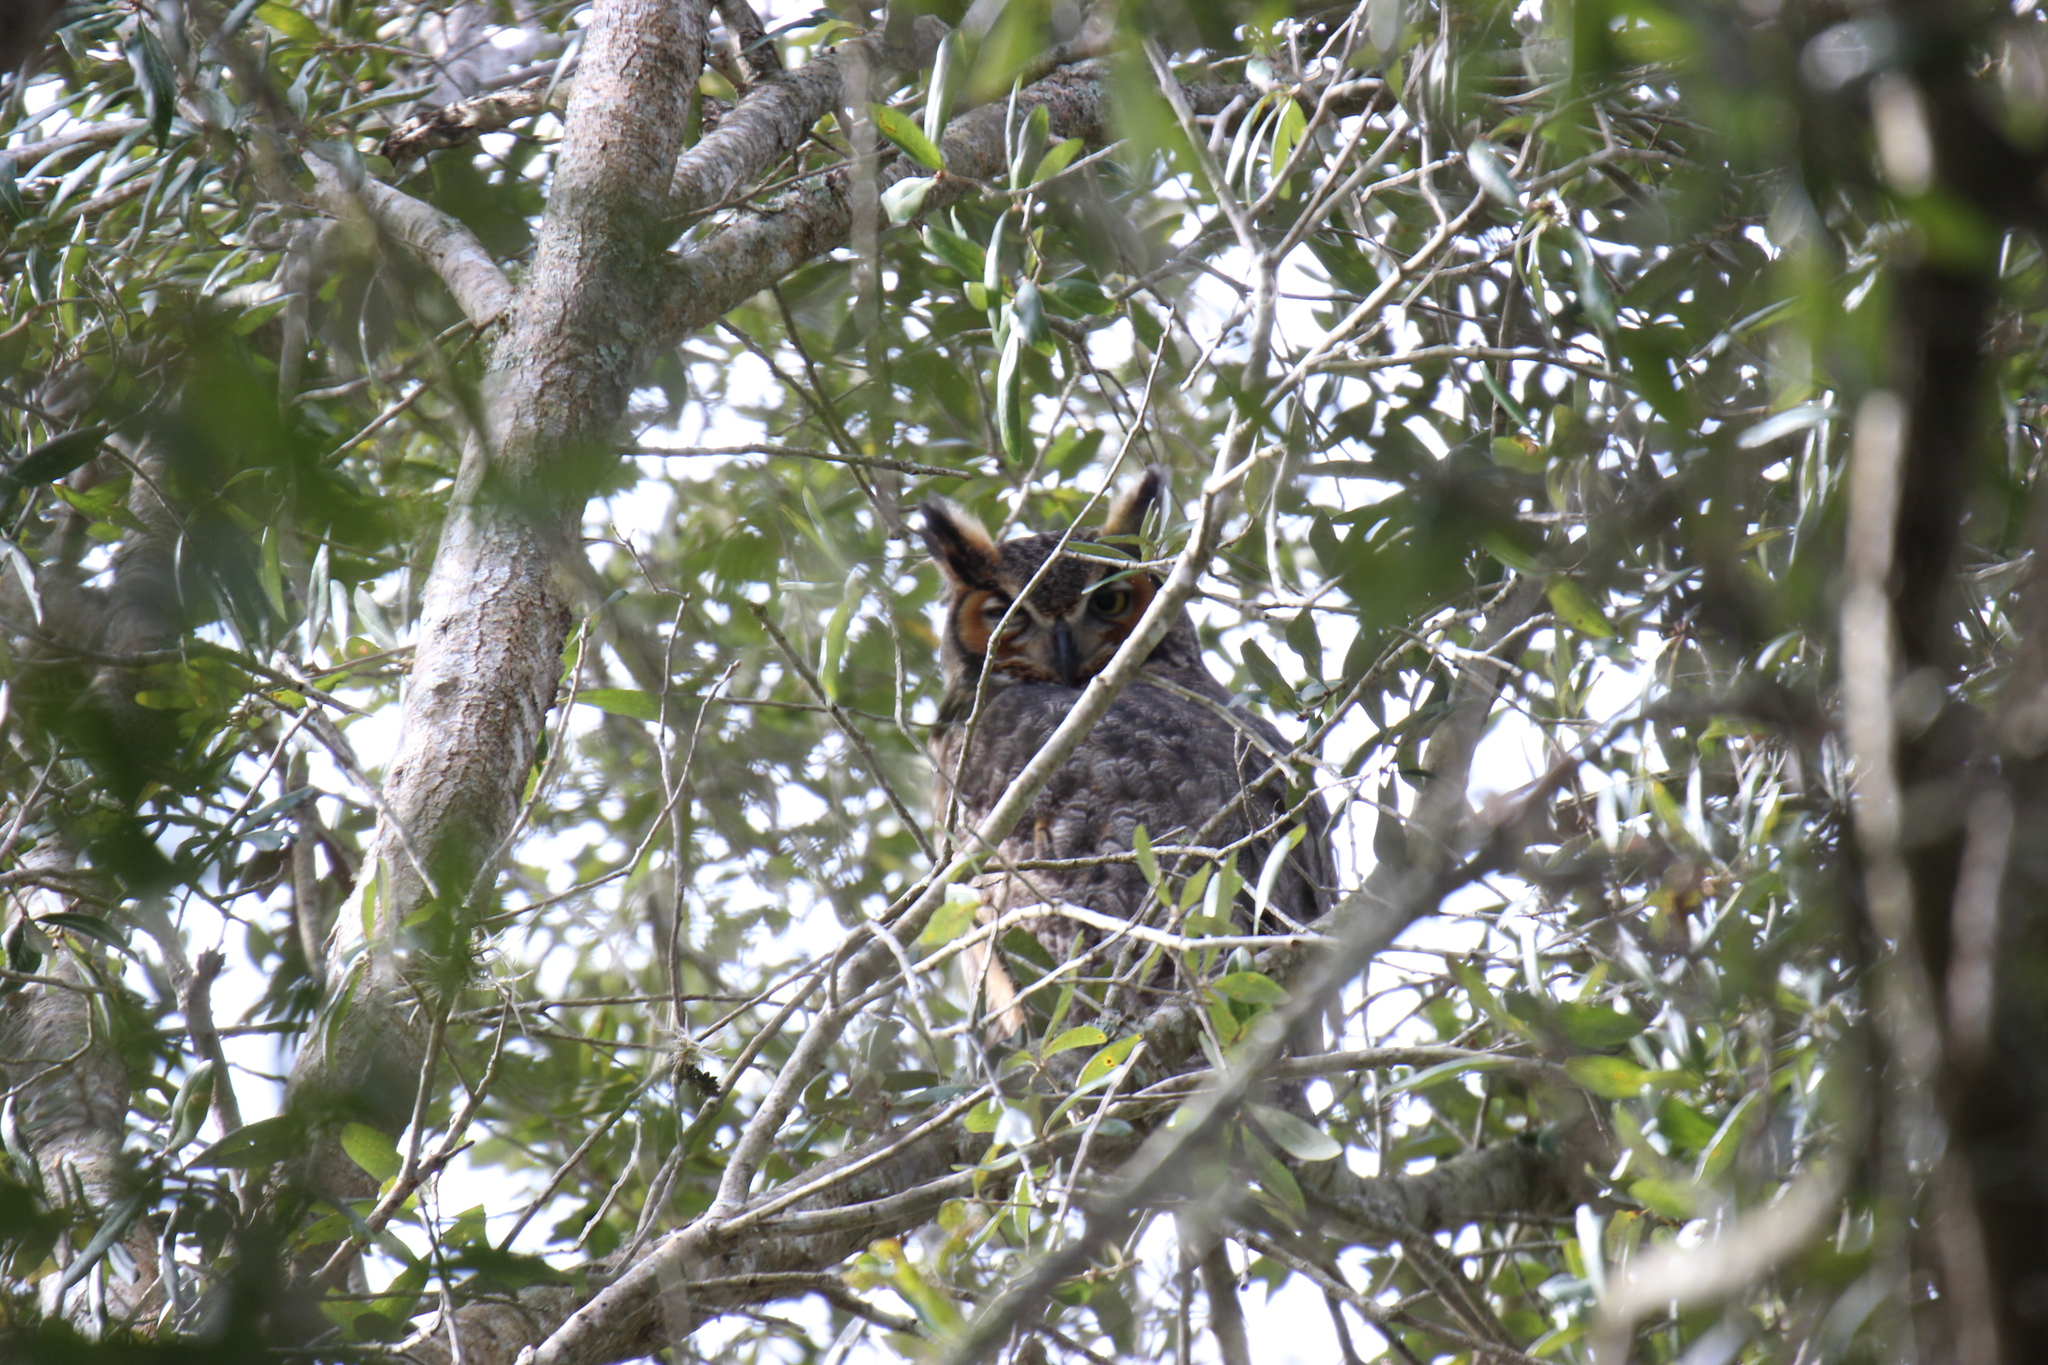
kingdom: Animalia
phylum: Chordata
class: Aves
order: Strigiformes
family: Strigidae
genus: Bubo
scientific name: Bubo virginianus
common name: Great horned owl
